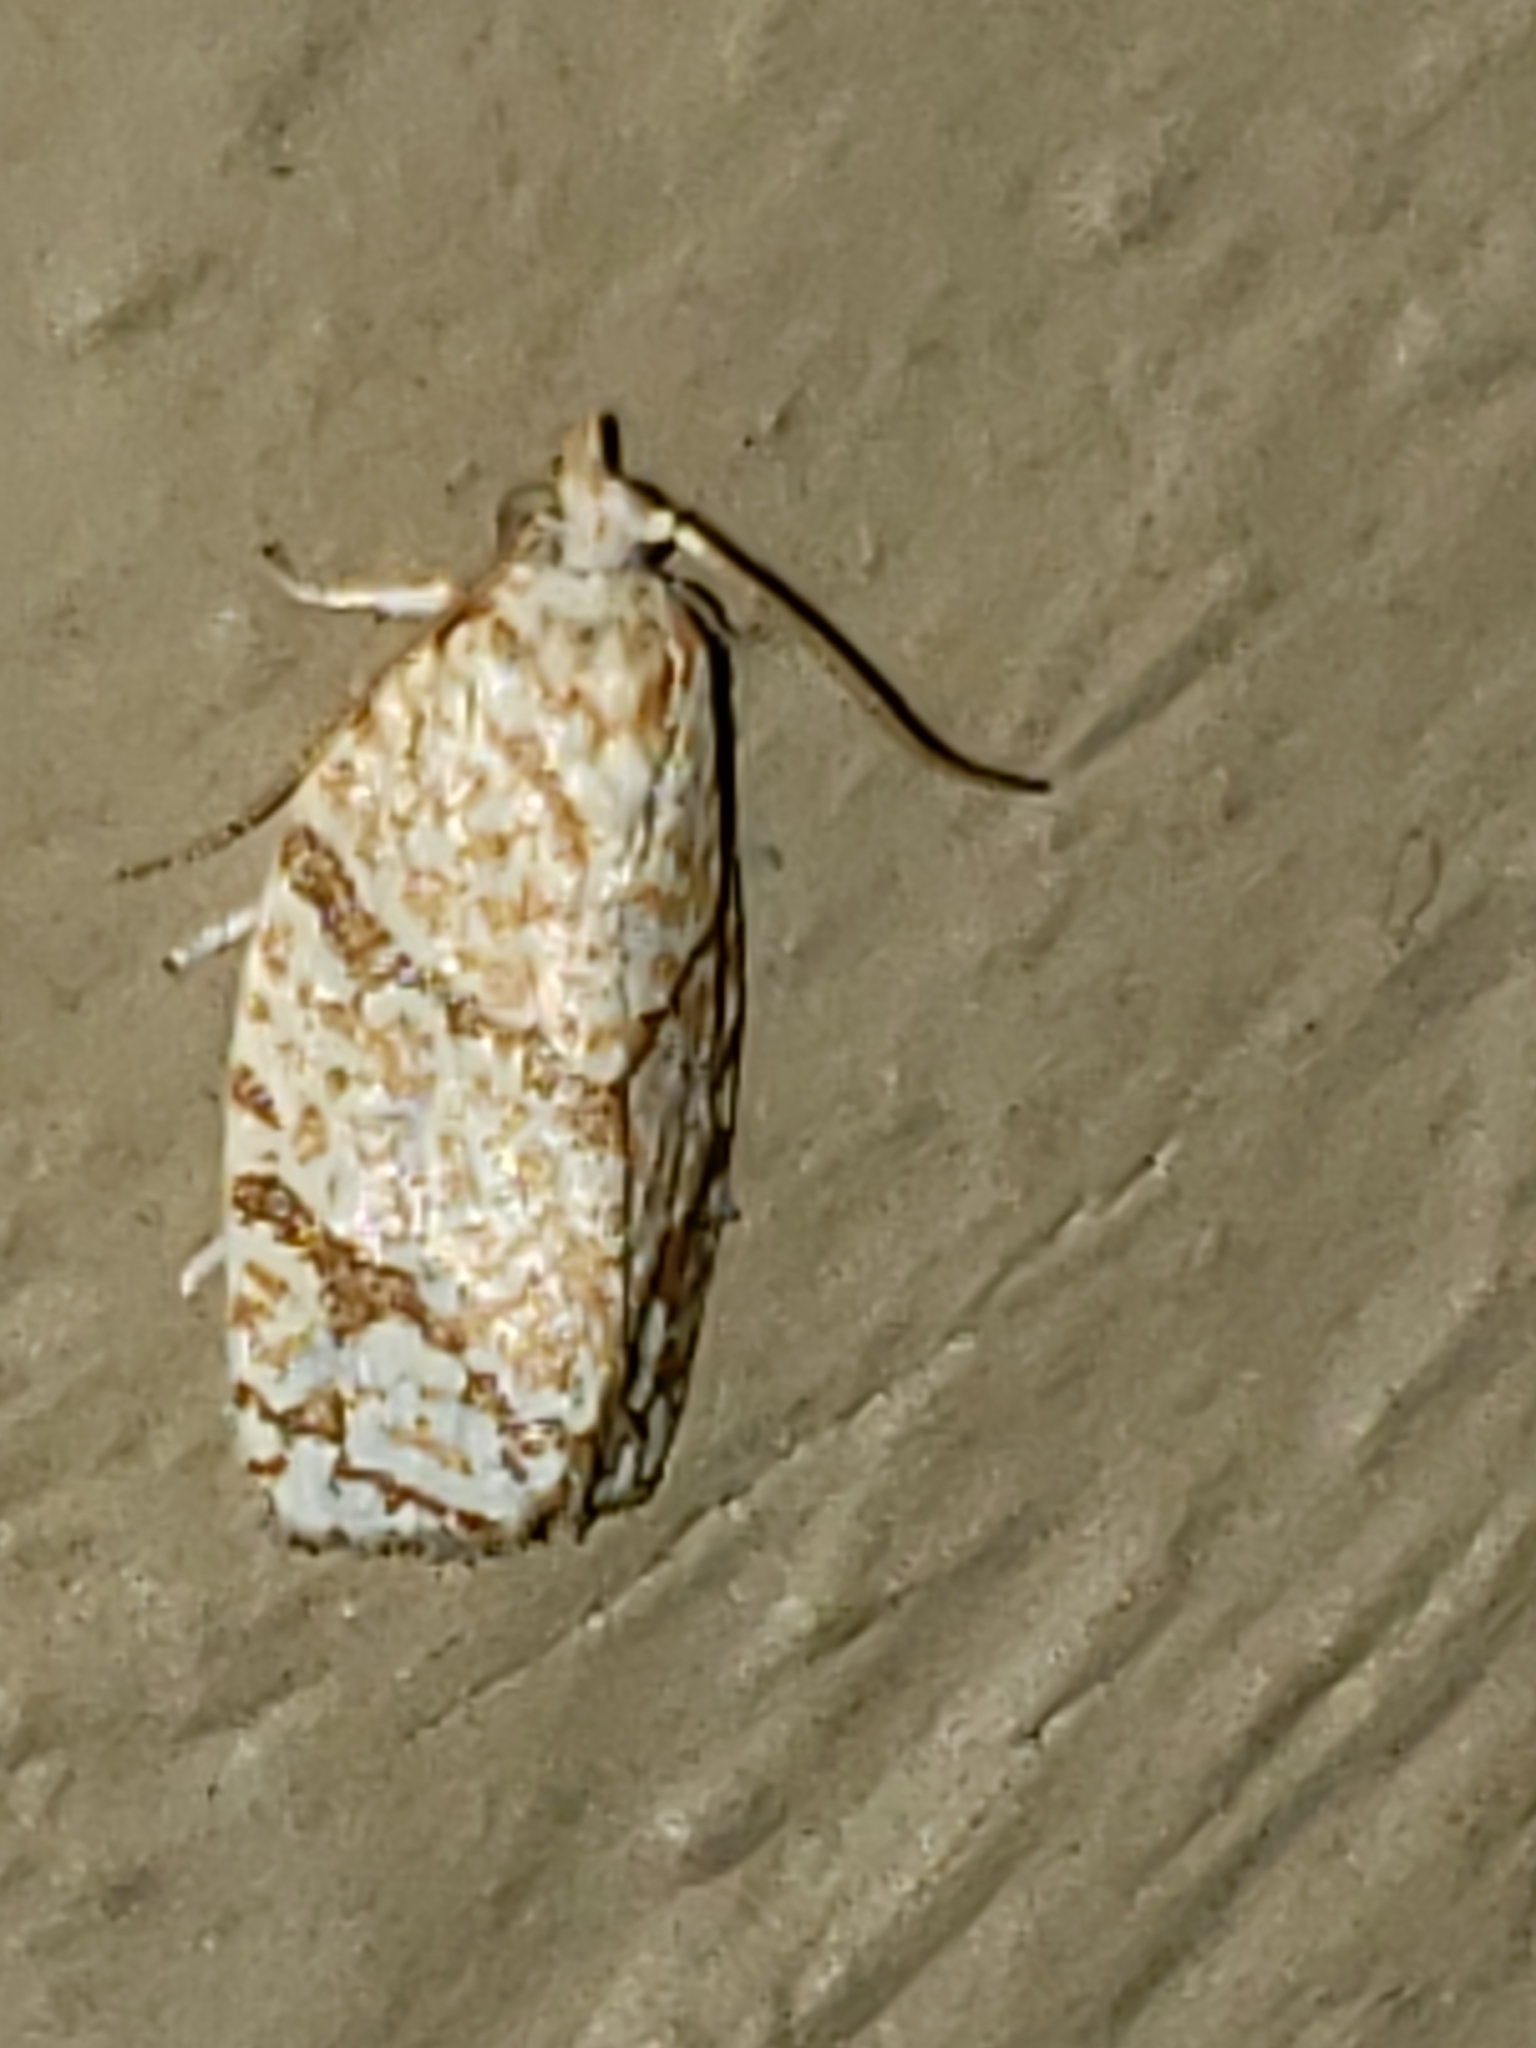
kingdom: Animalia
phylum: Arthropoda
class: Insecta
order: Lepidoptera
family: Tortricidae
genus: Argyrotaenia
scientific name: Argyrotaenia quercifoliana
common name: Yellow-winged oak leafroller moth
